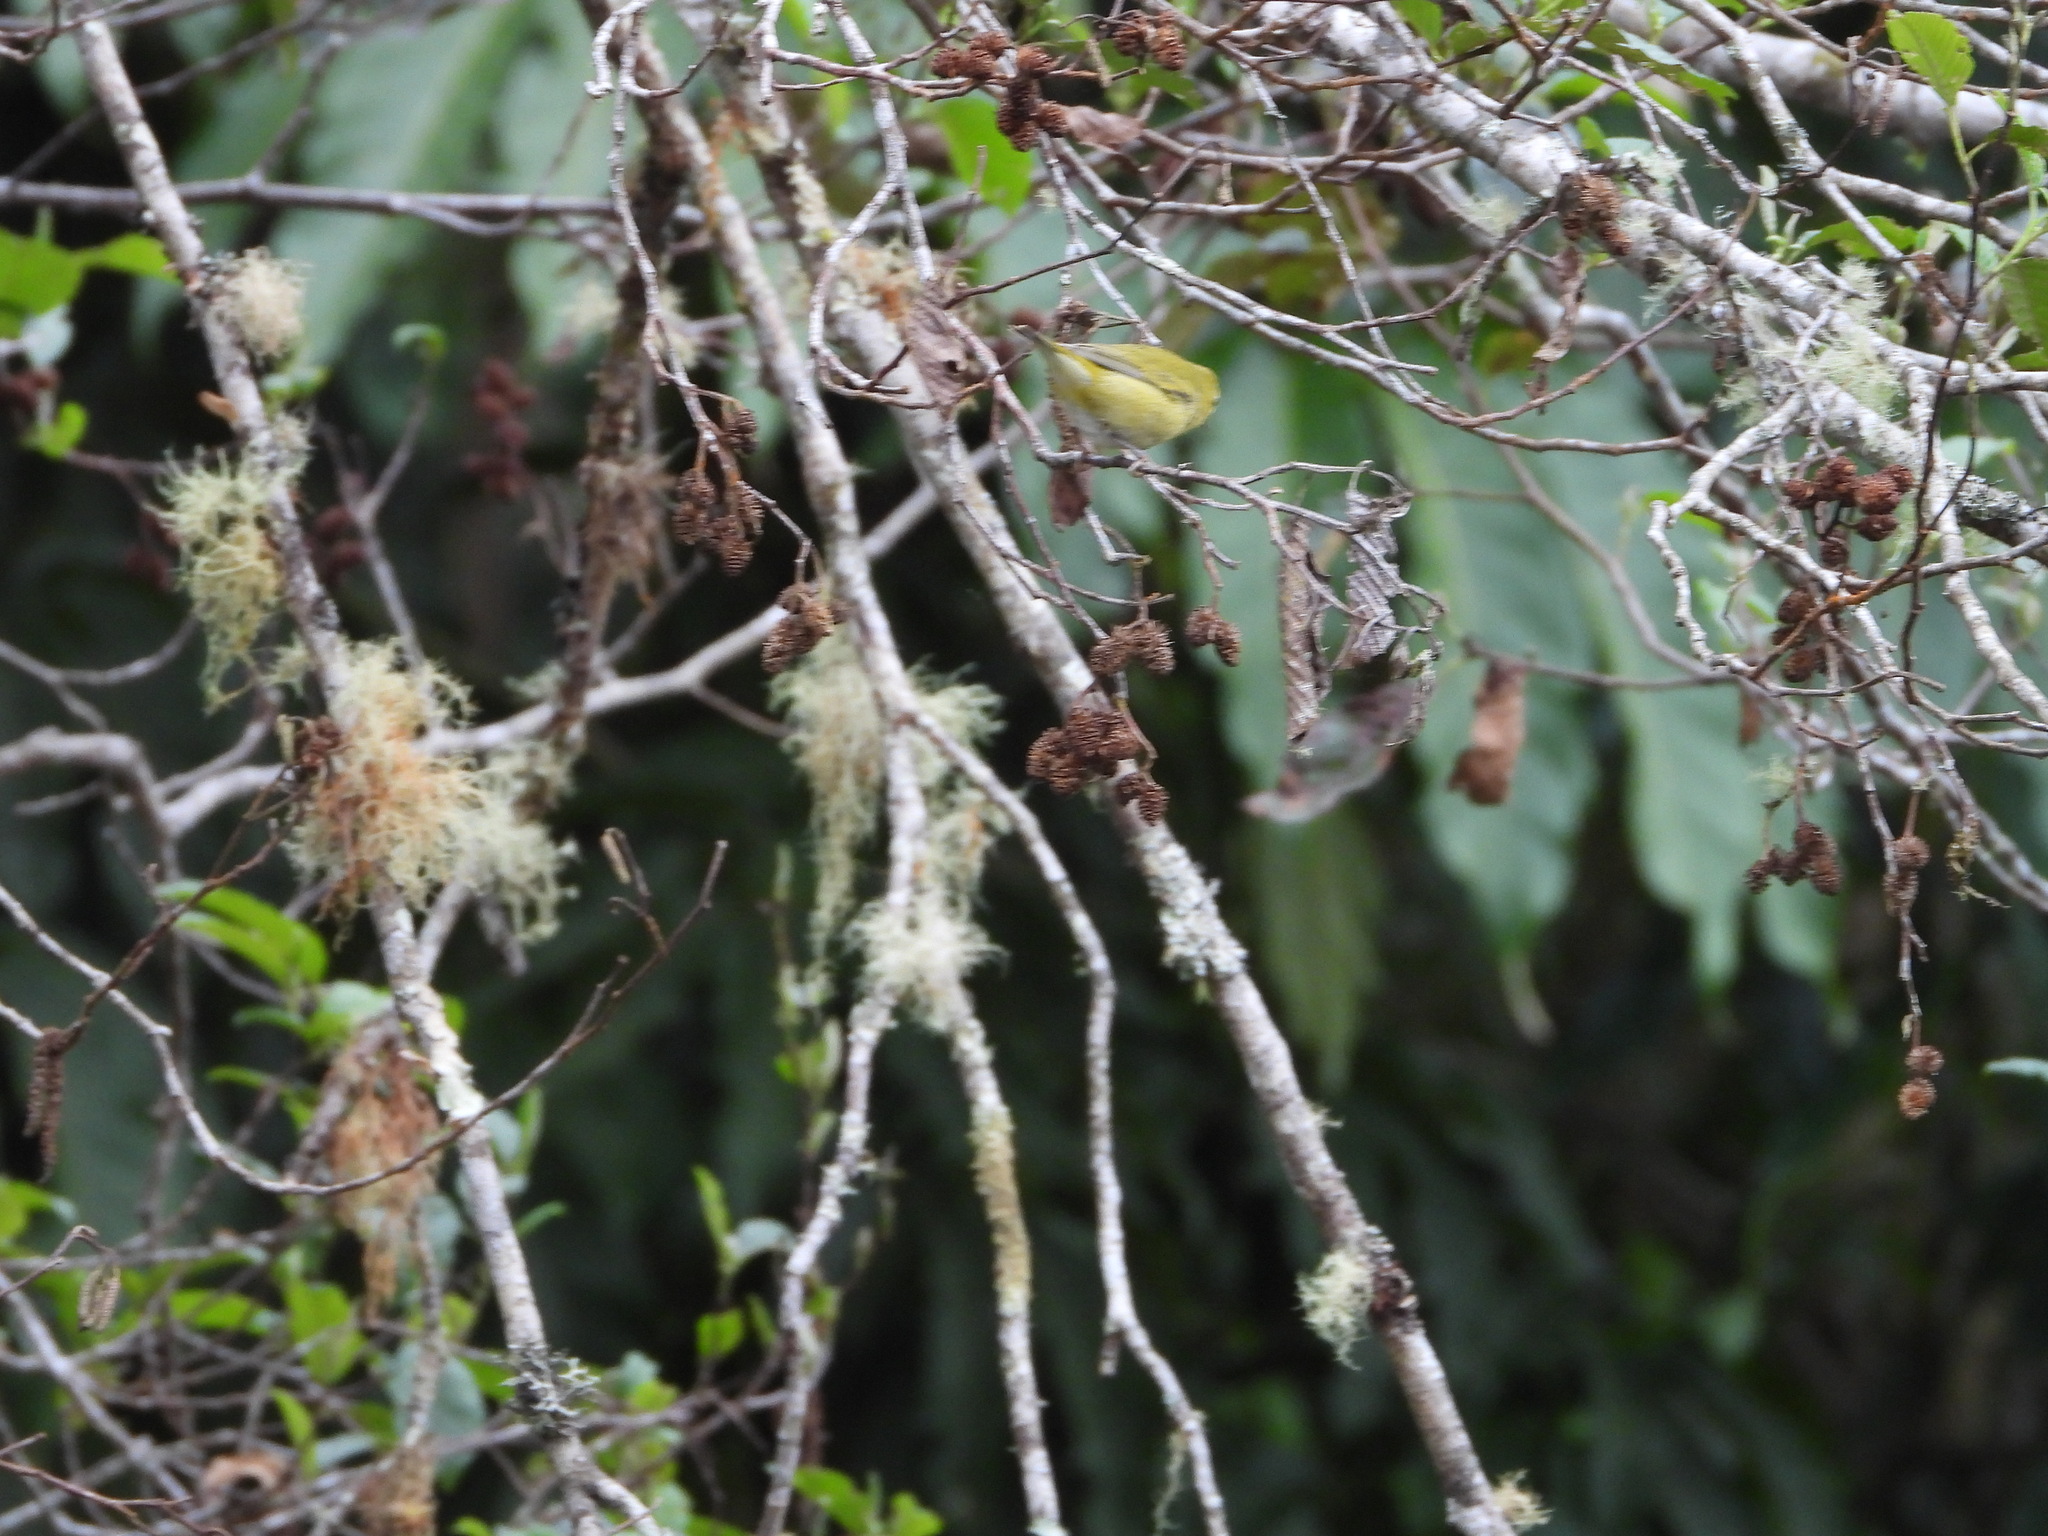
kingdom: Animalia
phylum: Chordata
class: Aves
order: Passeriformes
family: Parulidae
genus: Leiothlypis
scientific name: Leiothlypis peregrina
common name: Tennessee warbler
